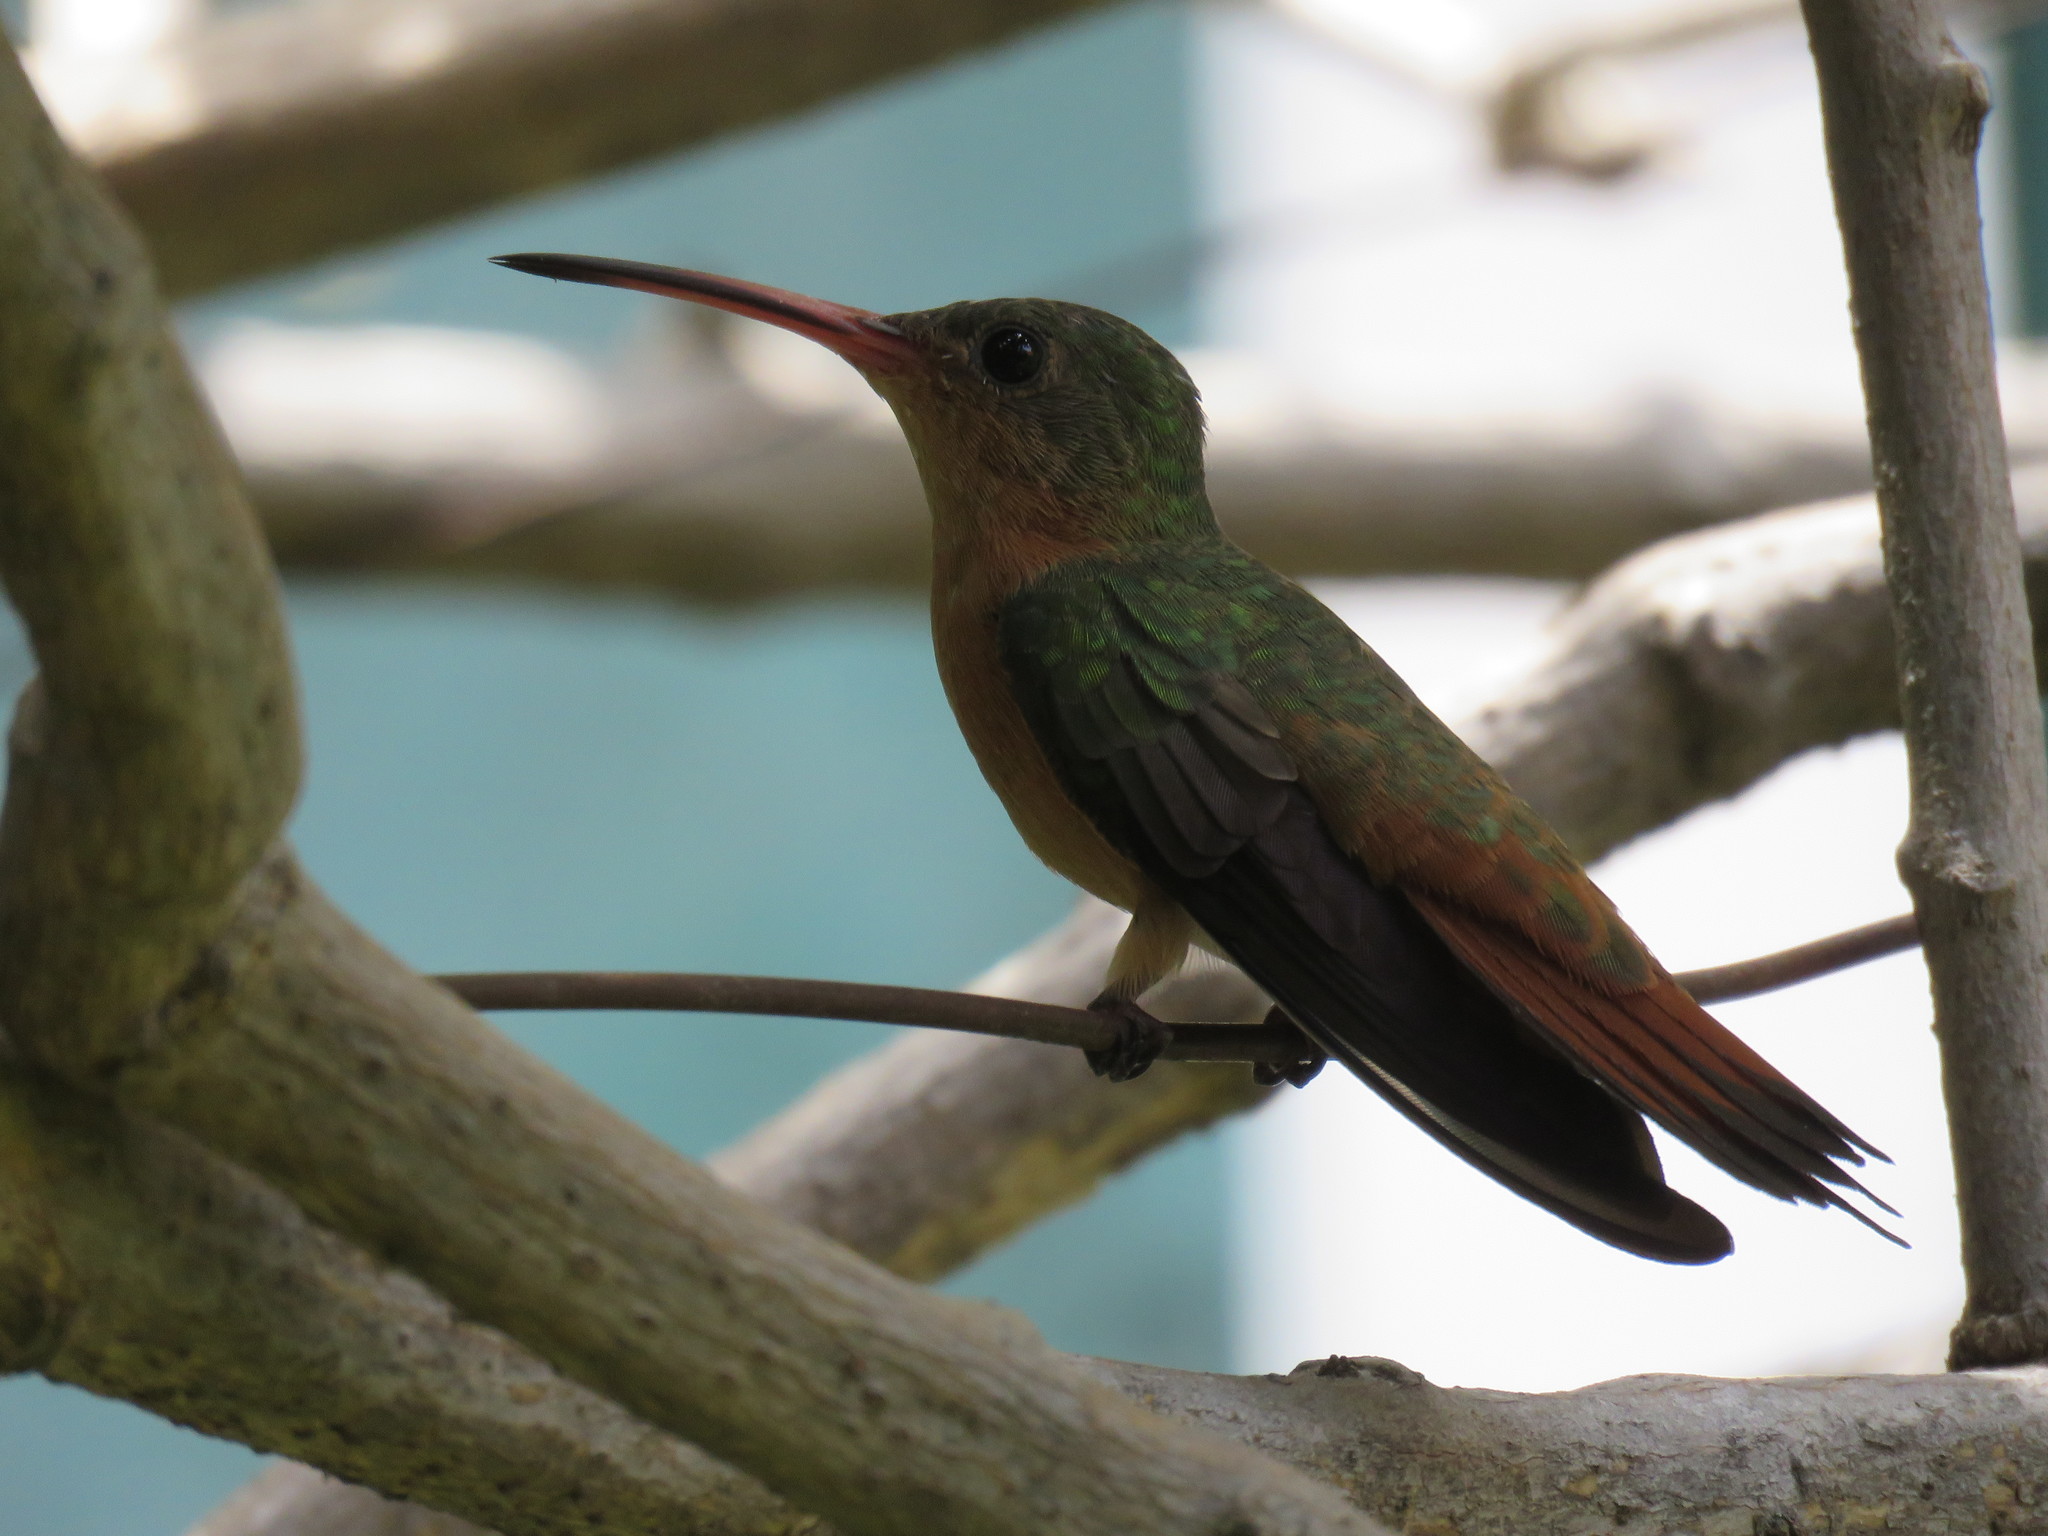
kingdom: Animalia
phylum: Chordata
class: Aves
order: Apodiformes
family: Trochilidae
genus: Amazilia
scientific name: Amazilia rutila
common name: Cinnamon hummingbird
